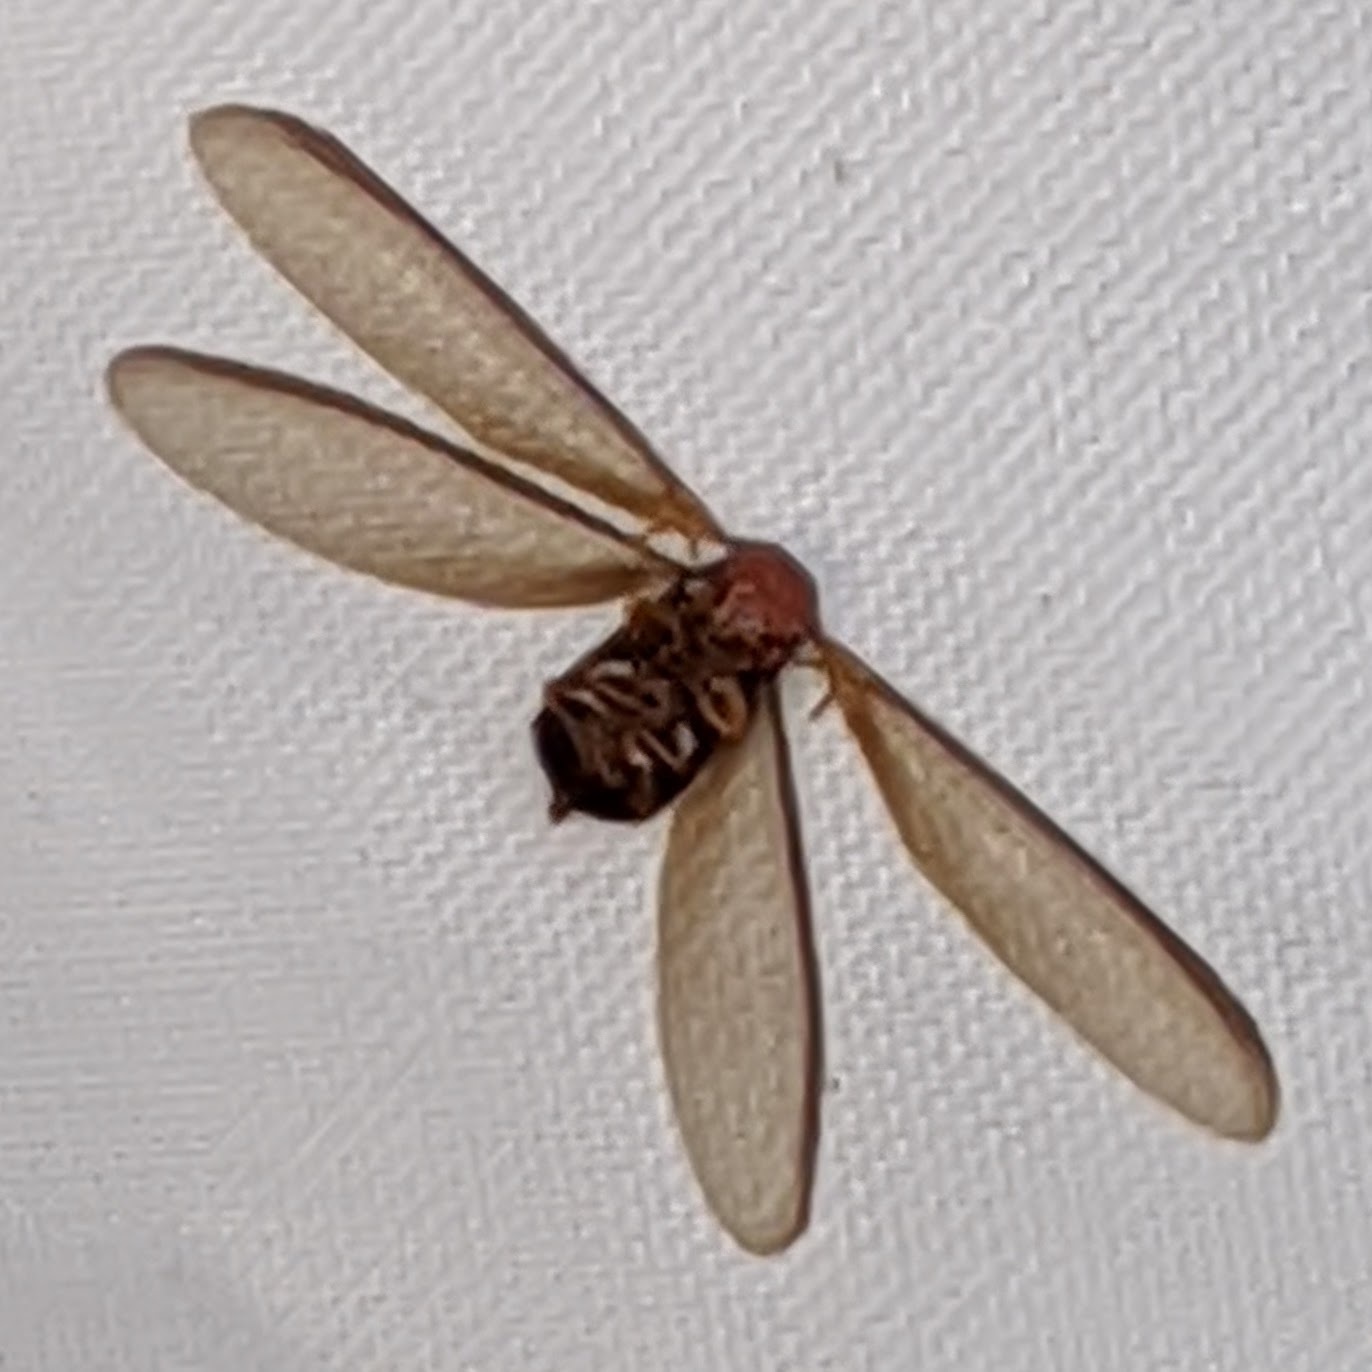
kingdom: Animalia
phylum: Arthropoda
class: Insecta
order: Blattodea
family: Kalotermitidae
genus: Incisitermes
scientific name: Incisitermes minor
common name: Termite
